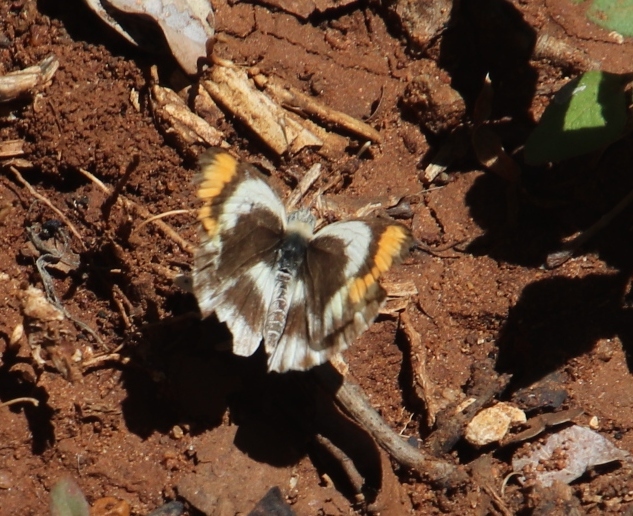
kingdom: Animalia
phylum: Arthropoda
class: Insecta
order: Lepidoptera
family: Pieridae
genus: Colotis
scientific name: Colotis euippe
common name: Round-winged orange tip
